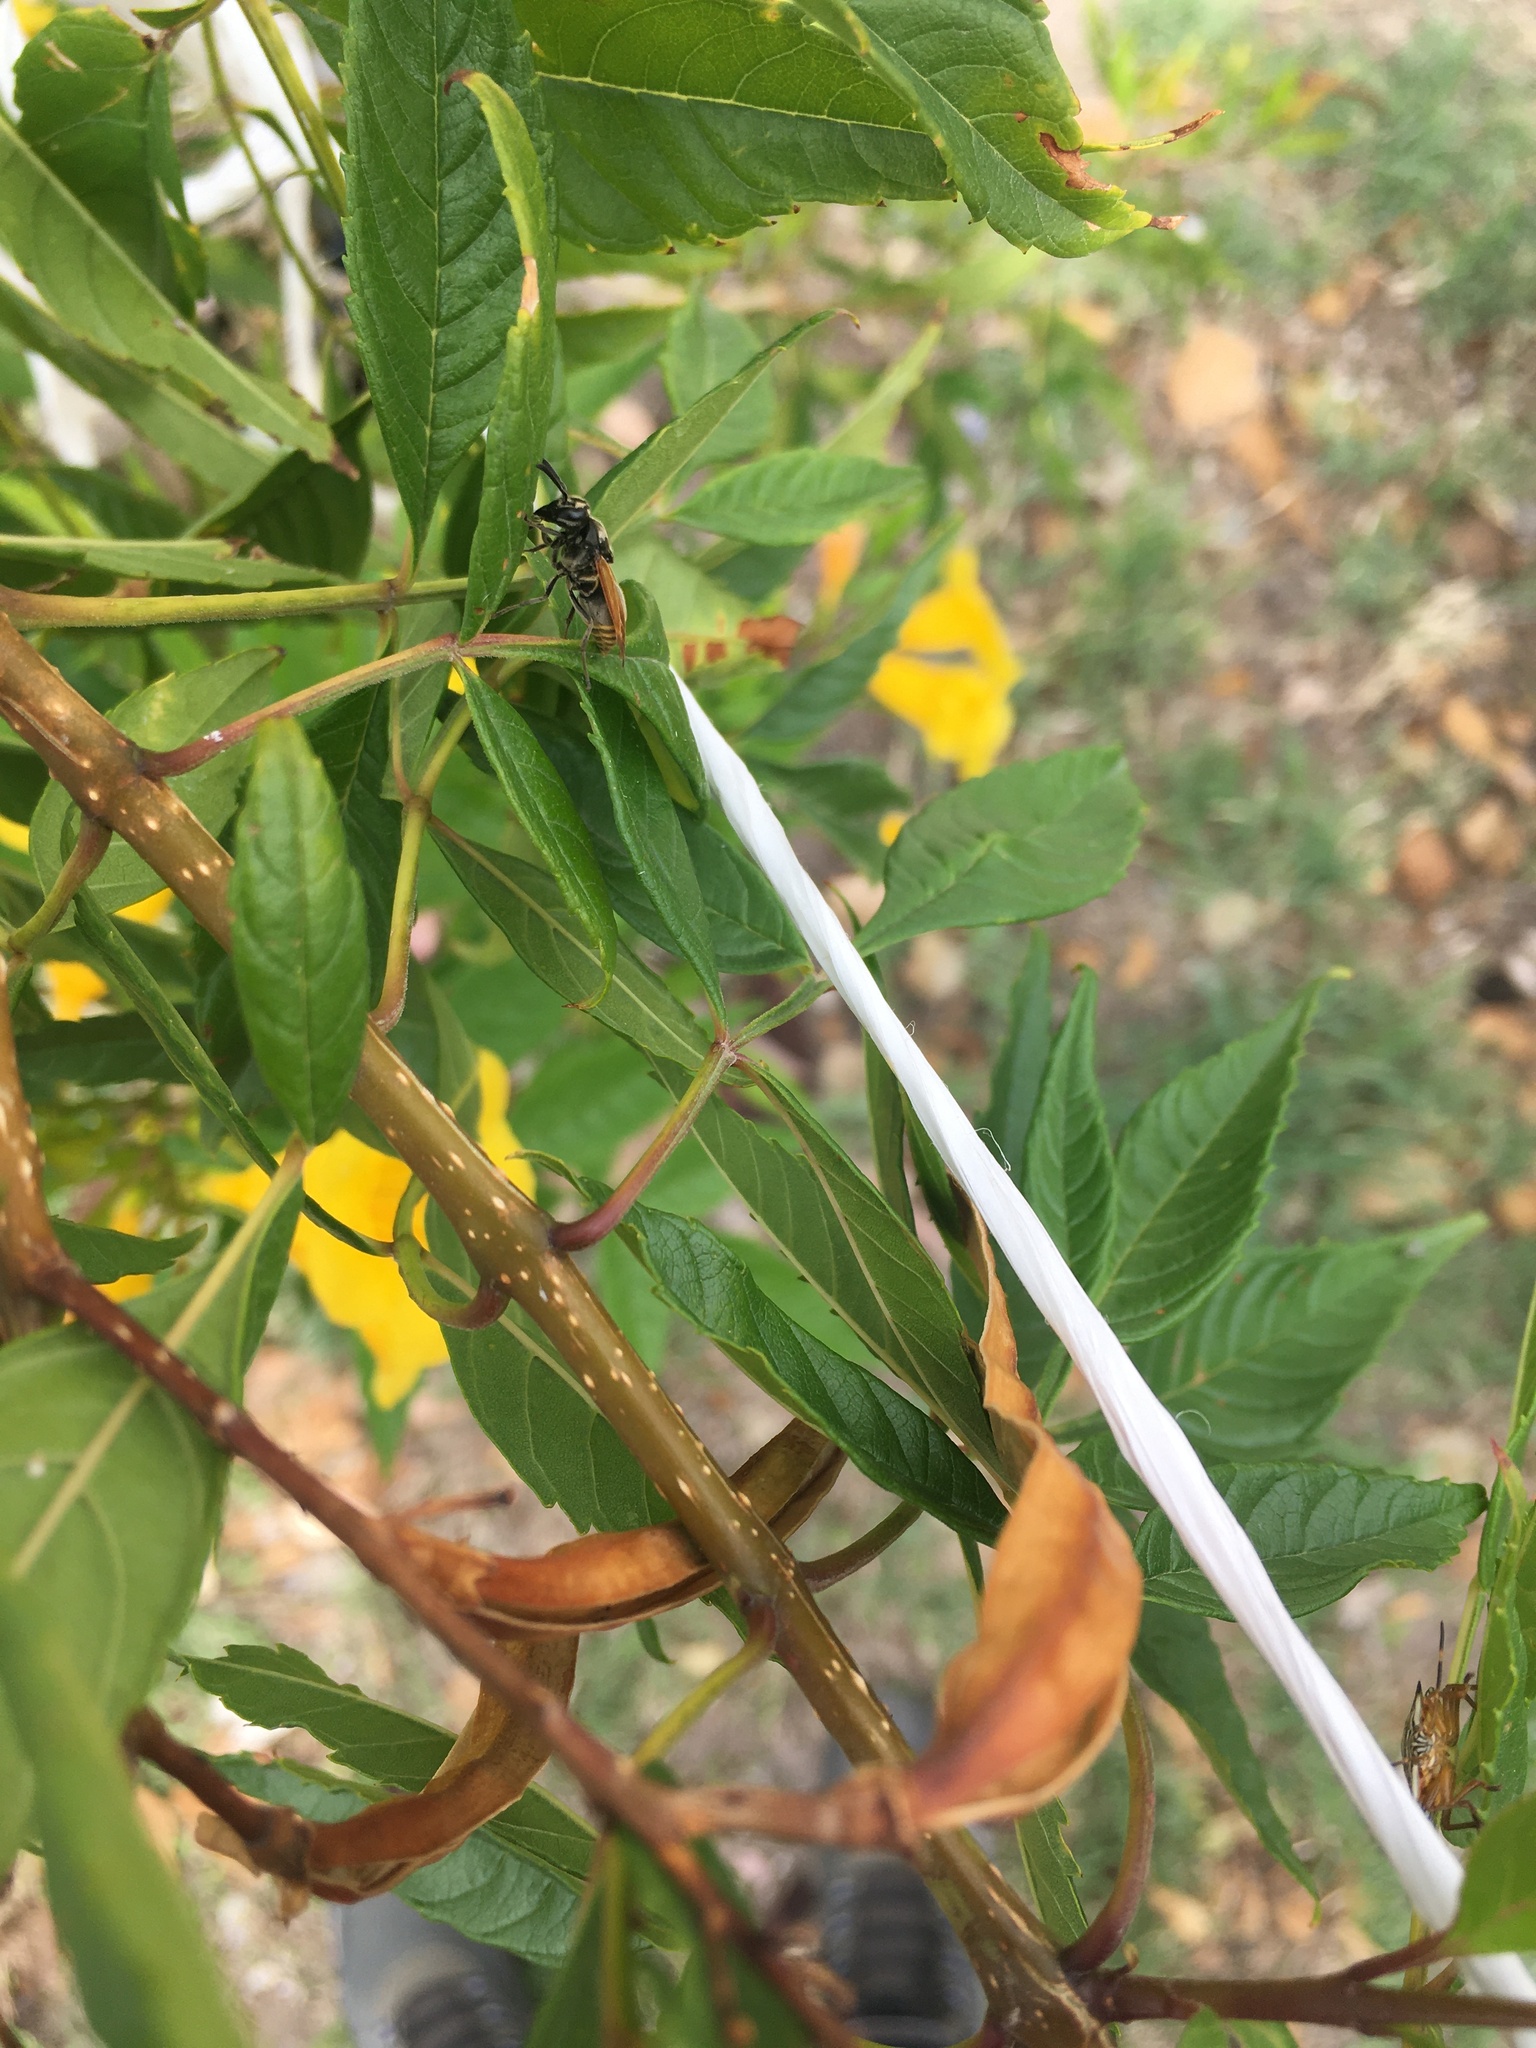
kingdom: Animalia
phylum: Arthropoda
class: Insecta
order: Hymenoptera
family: Vespidae
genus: Brachygastra
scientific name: Brachygastra mellifica
